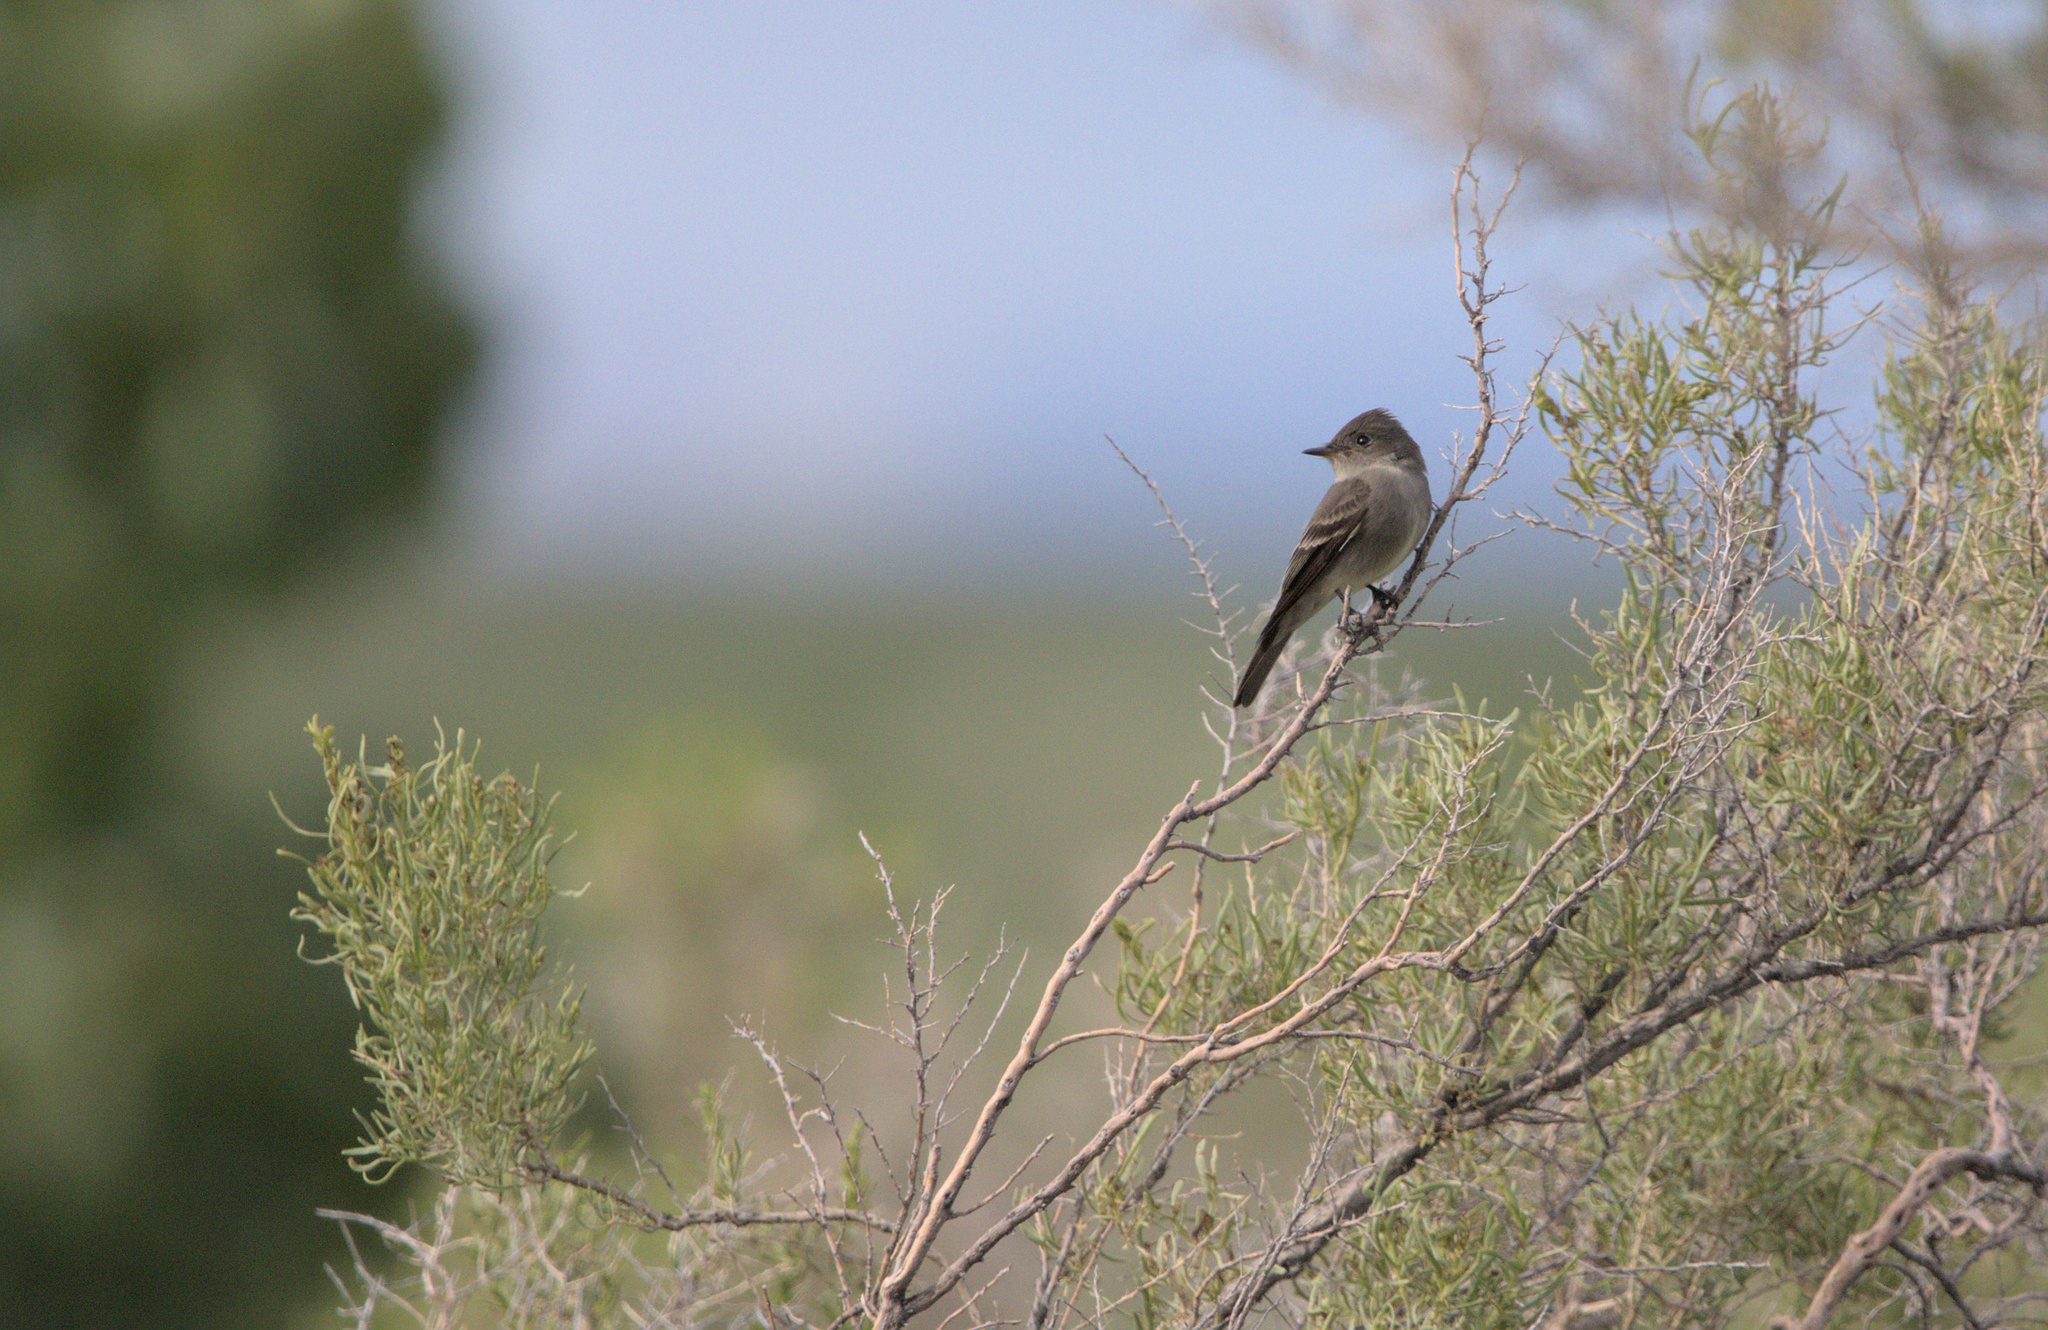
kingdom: Animalia
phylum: Chordata
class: Aves
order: Passeriformes
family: Tyrannidae
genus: Contopus
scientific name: Contopus sordidulus
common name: Western wood-pewee
